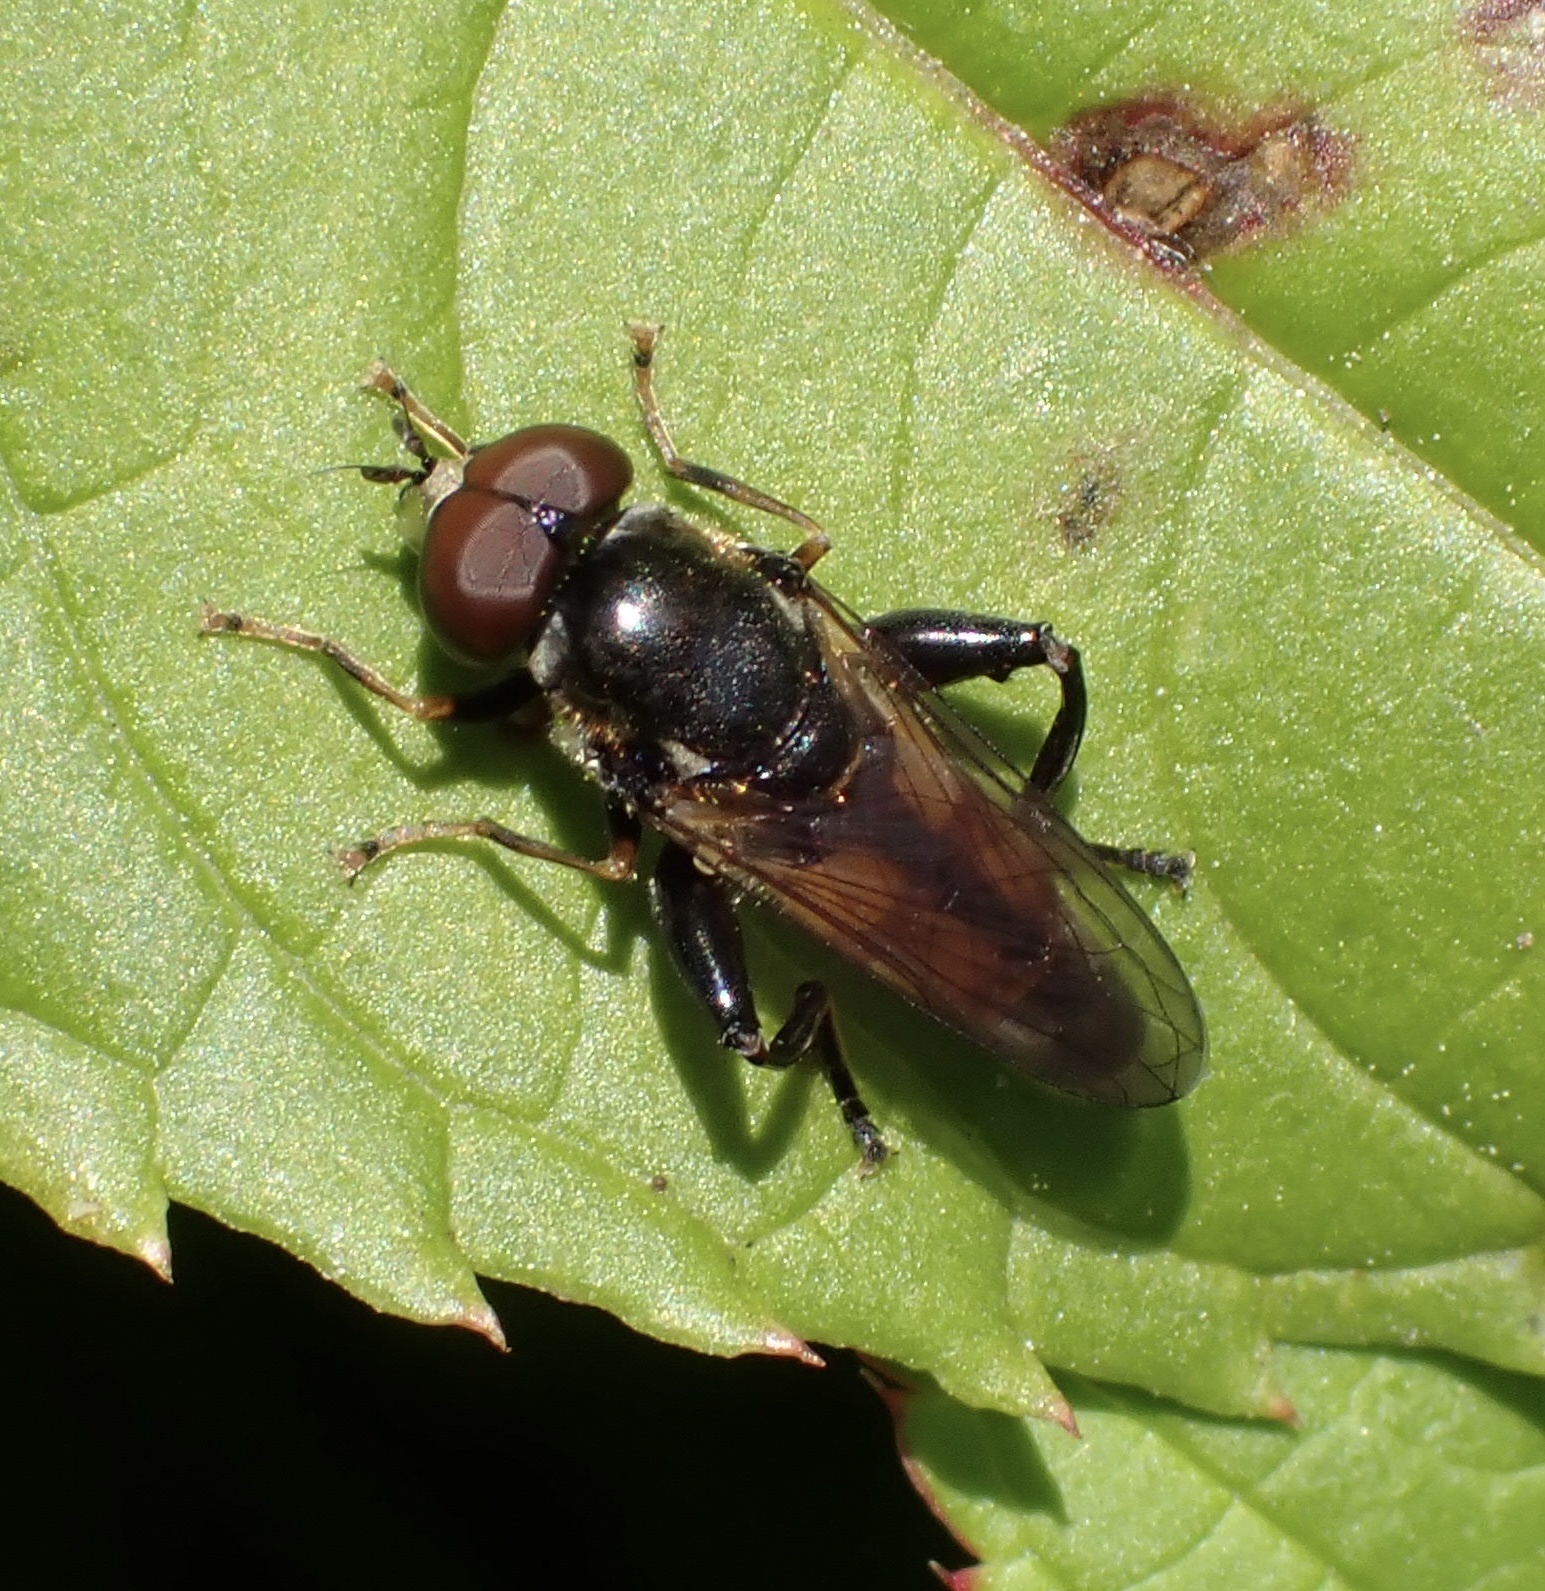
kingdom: Animalia
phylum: Arthropoda
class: Insecta
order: Diptera
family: Syrphidae
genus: Tropidia
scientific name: Tropidia scita
